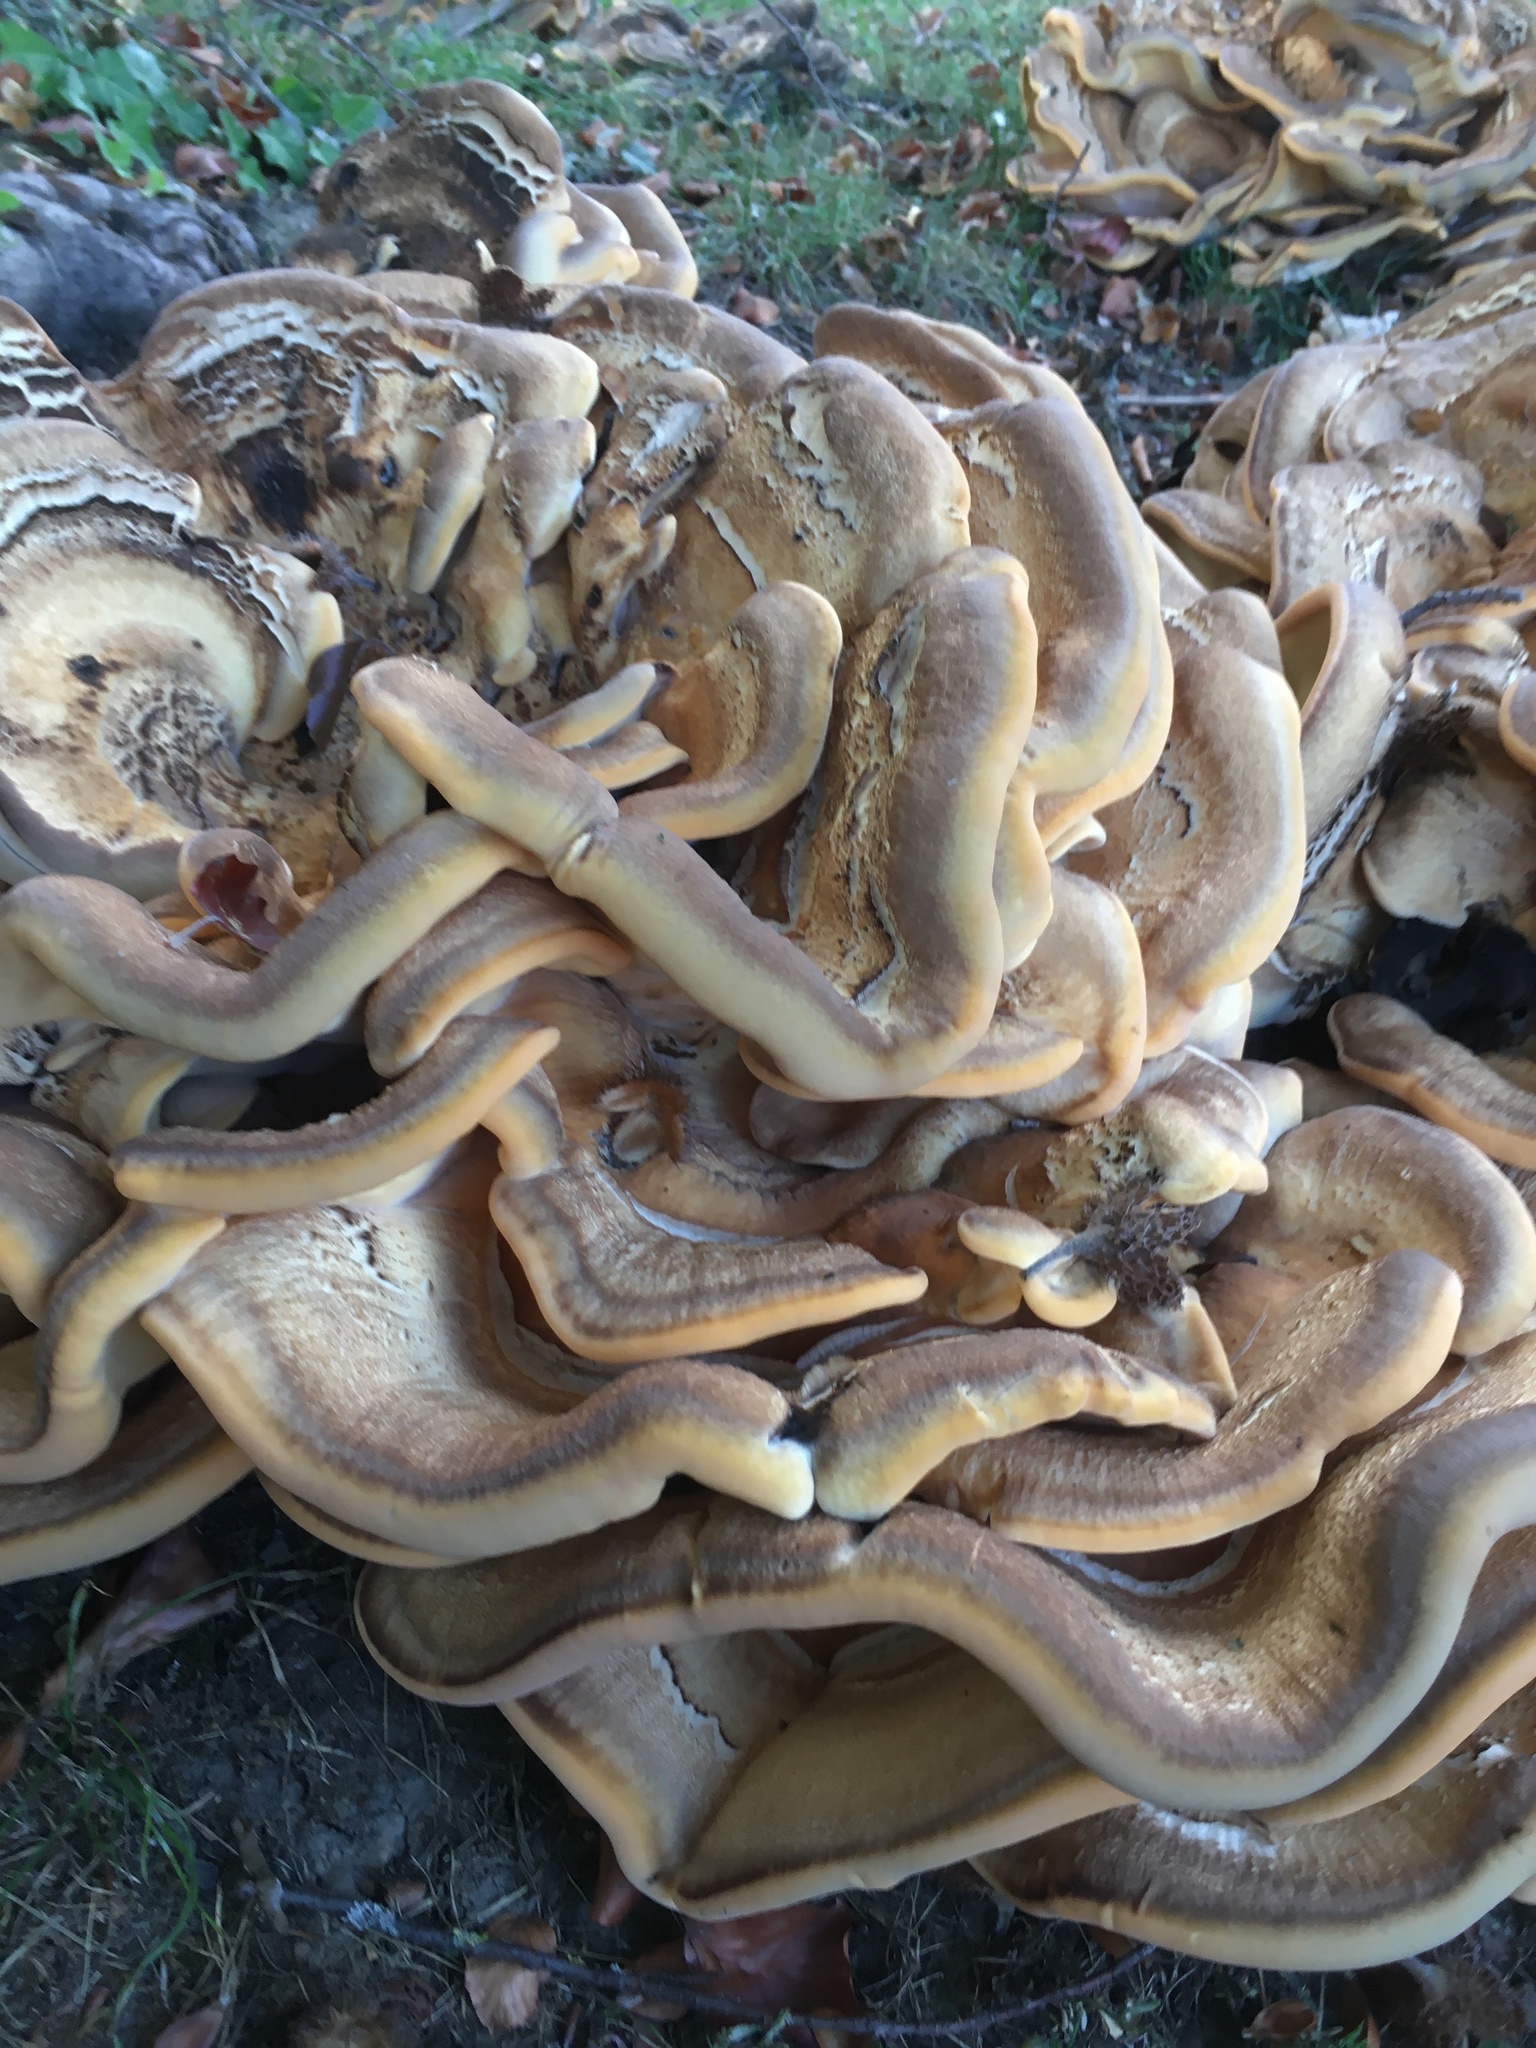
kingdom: Fungi
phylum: Basidiomycota
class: Agaricomycetes
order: Polyporales
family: Meripilaceae
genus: Meripilus
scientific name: Meripilus giganteus
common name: Giant polypore
